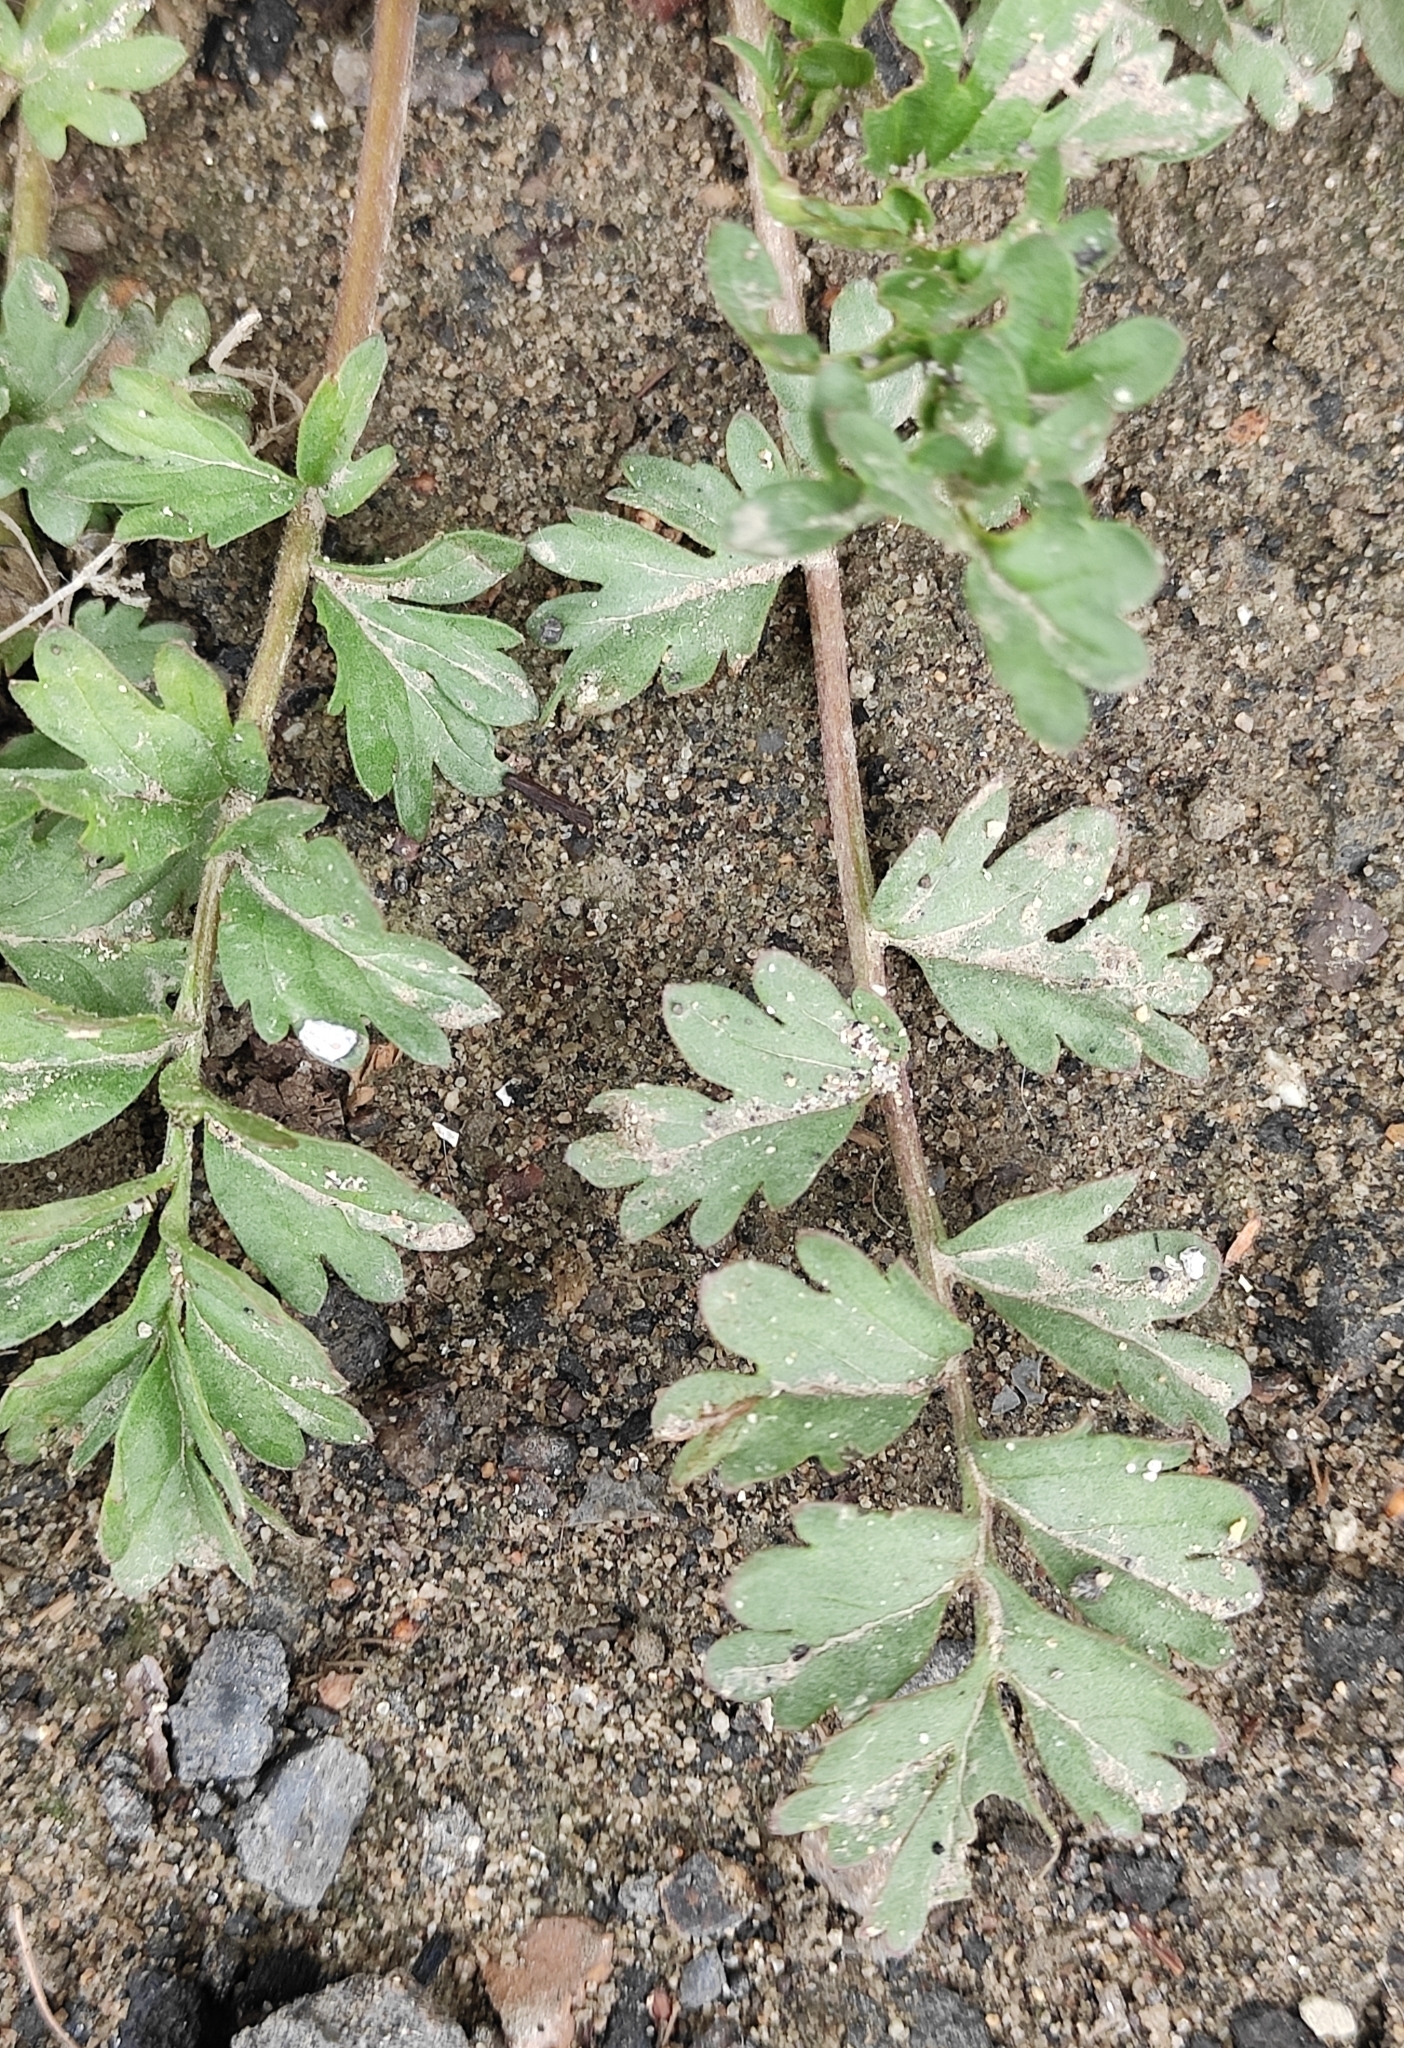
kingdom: Plantae
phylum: Tracheophyta
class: Magnoliopsida
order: Rosales
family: Rosaceae
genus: Potentilla
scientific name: Potentilla supina
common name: Prostrate cinquefoil
